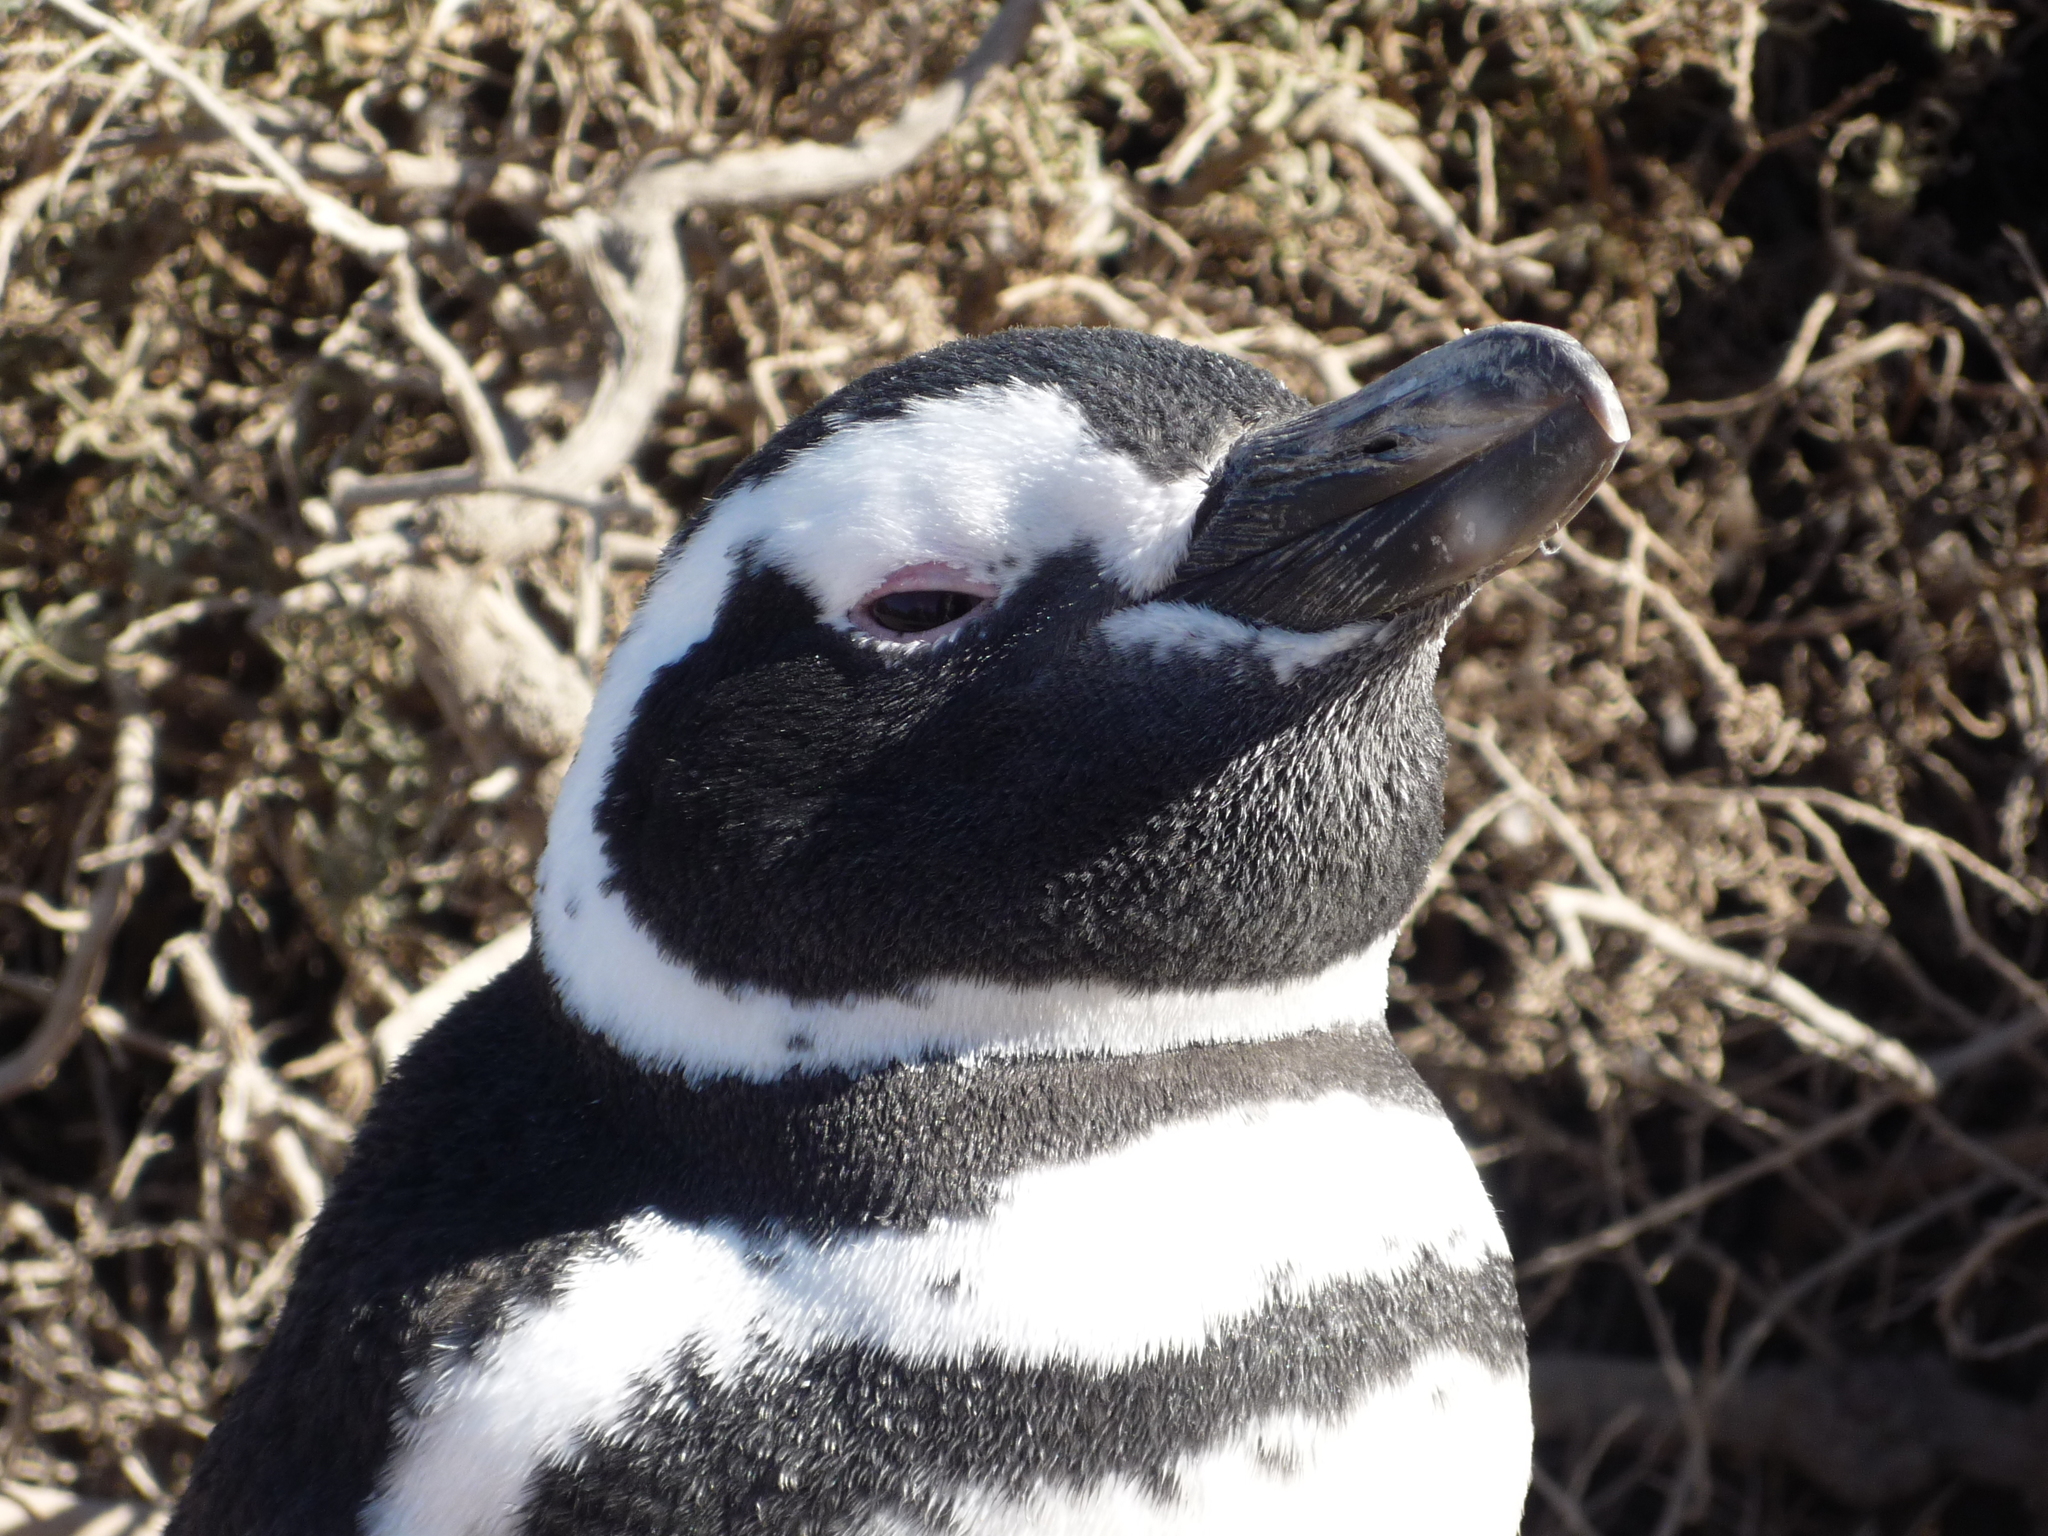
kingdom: Animalia
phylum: Chordata
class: Aves
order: Sphenisciformes
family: Spheniscidae
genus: Spheniscus
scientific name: Spheniscus magellanicus
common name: Magellanic penguin
